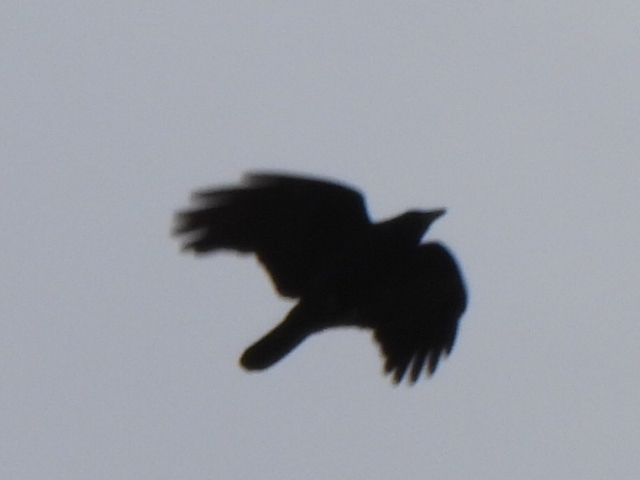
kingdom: Animalia
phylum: Chordata
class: Aves
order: Passeriformes
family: Corvidae
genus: Corvus
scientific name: Corvus brachyrhynchos
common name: American crow
